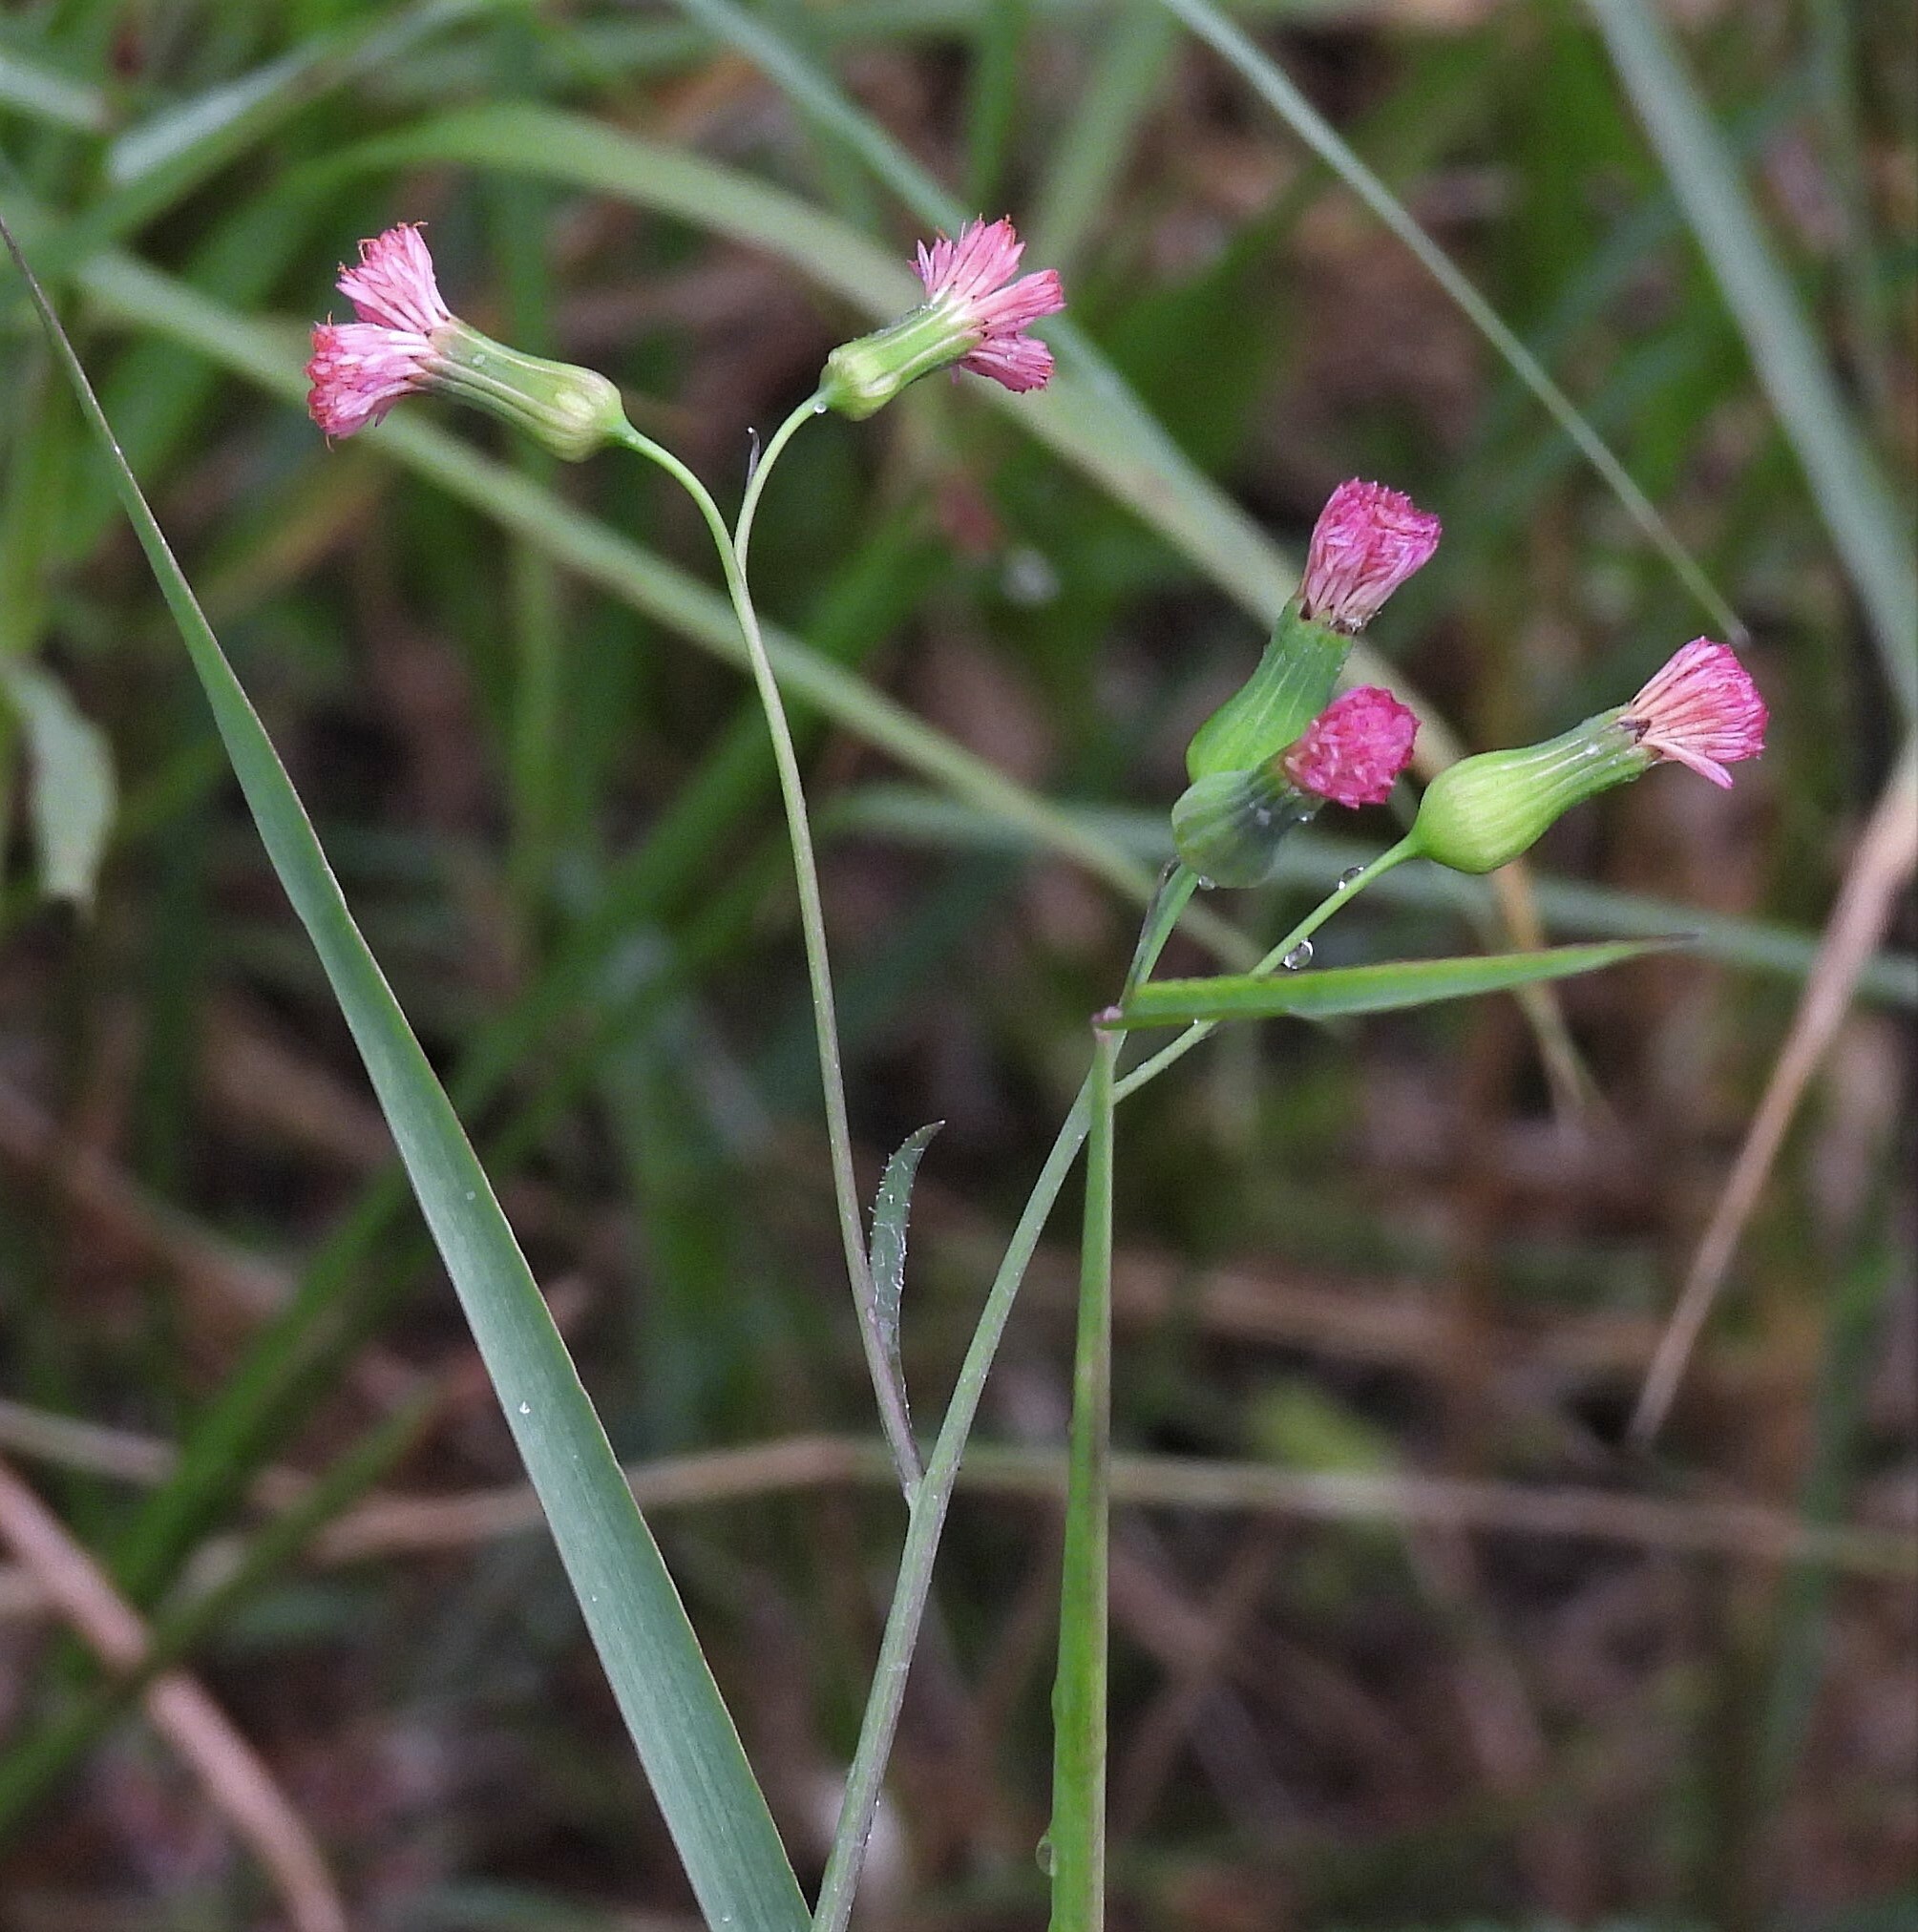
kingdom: Plantae
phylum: Tracheophyta
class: Magnoliopsida
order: Asterales
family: Asteraceae
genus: Emilia
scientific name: Emilia fosbergii
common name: Florida tasselflower
